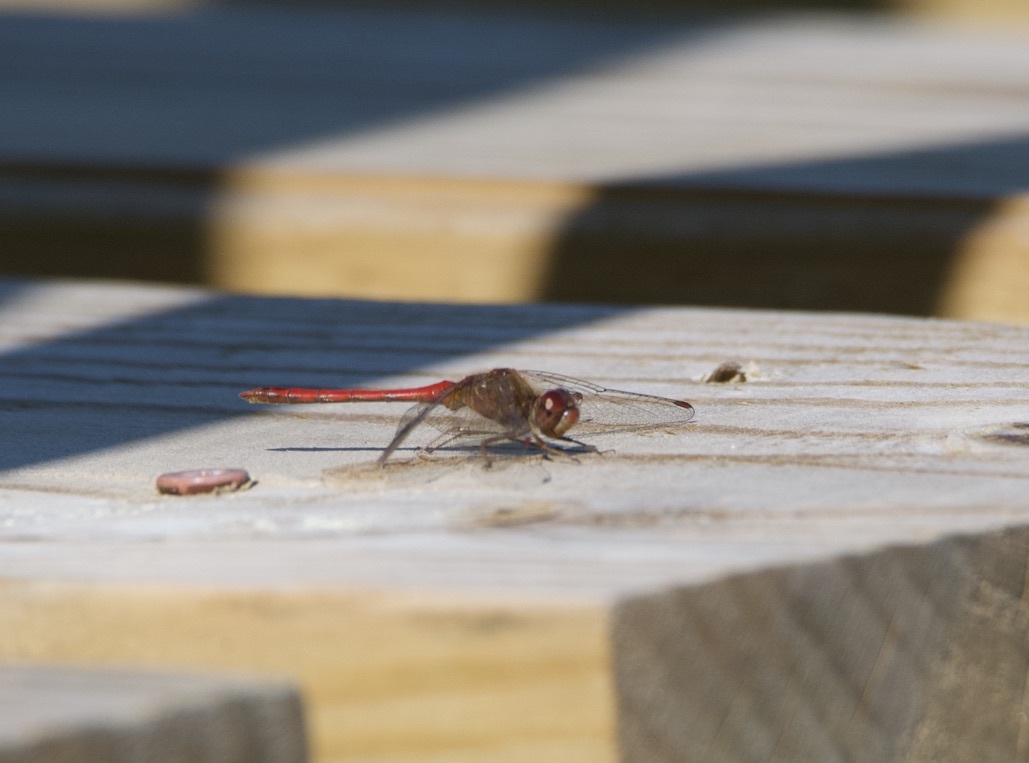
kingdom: Animalia
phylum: Arthropoda
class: Insecta
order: Odonata
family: Libellulidae
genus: Sympetrum
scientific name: Sympetrum vicinum
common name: Autumn meadowhawk
